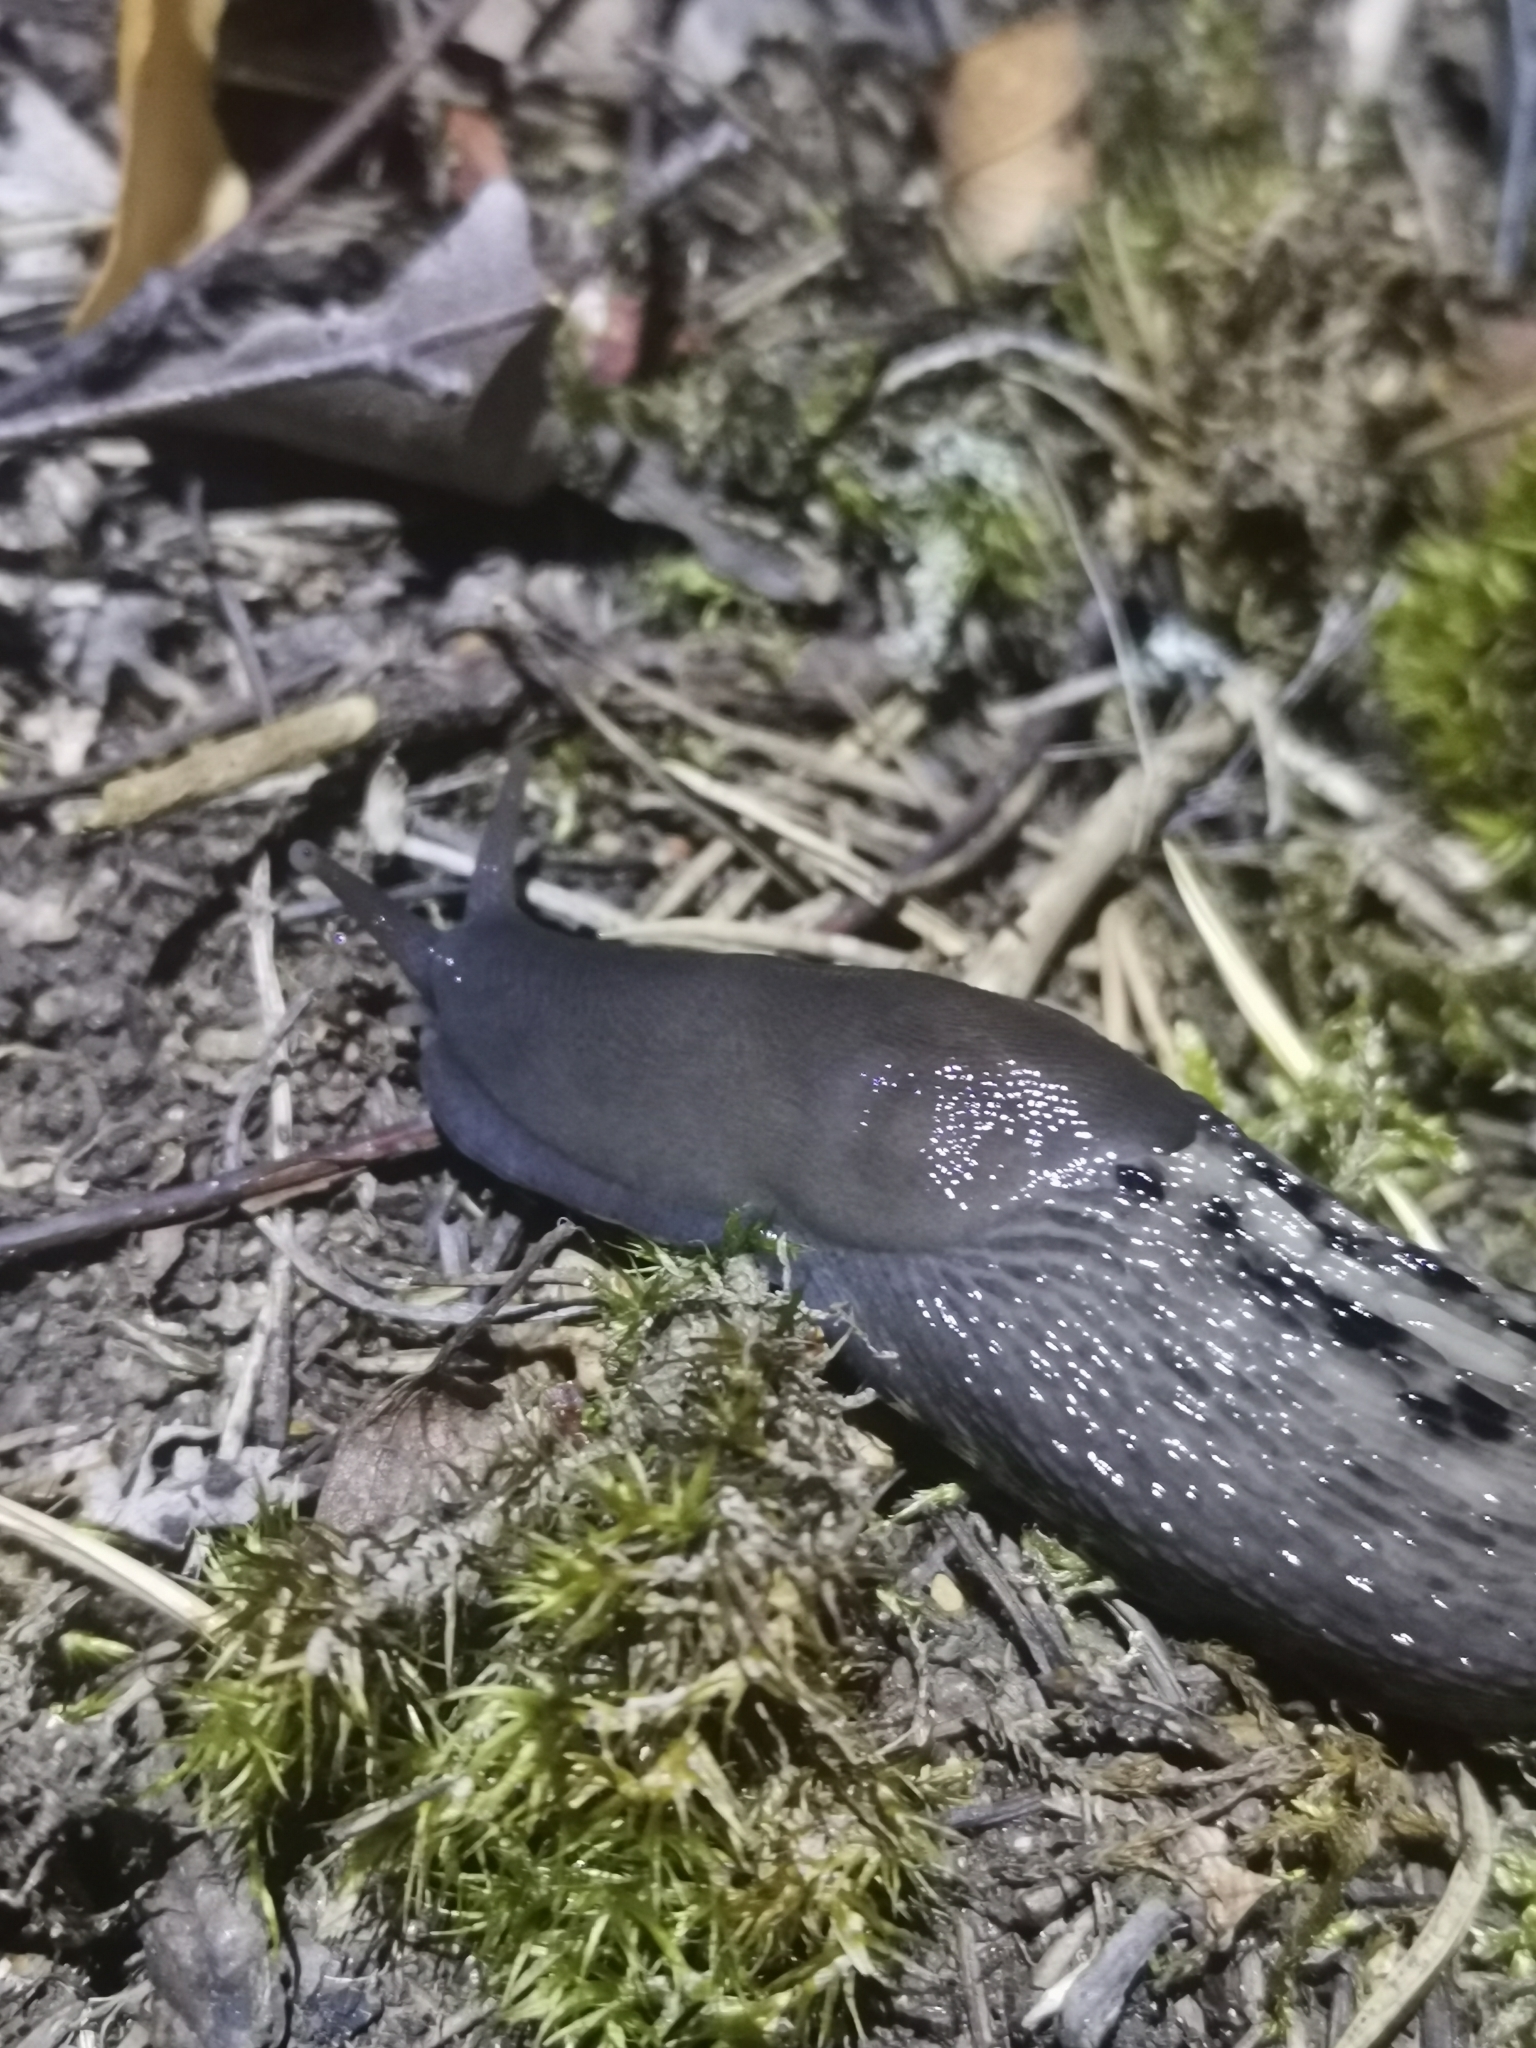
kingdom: Animalia
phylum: Mollusca
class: Gastropoda
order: Stylommatophora
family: Limacidae
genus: Limax
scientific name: Limax cinereoniger
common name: Ash-black slug
